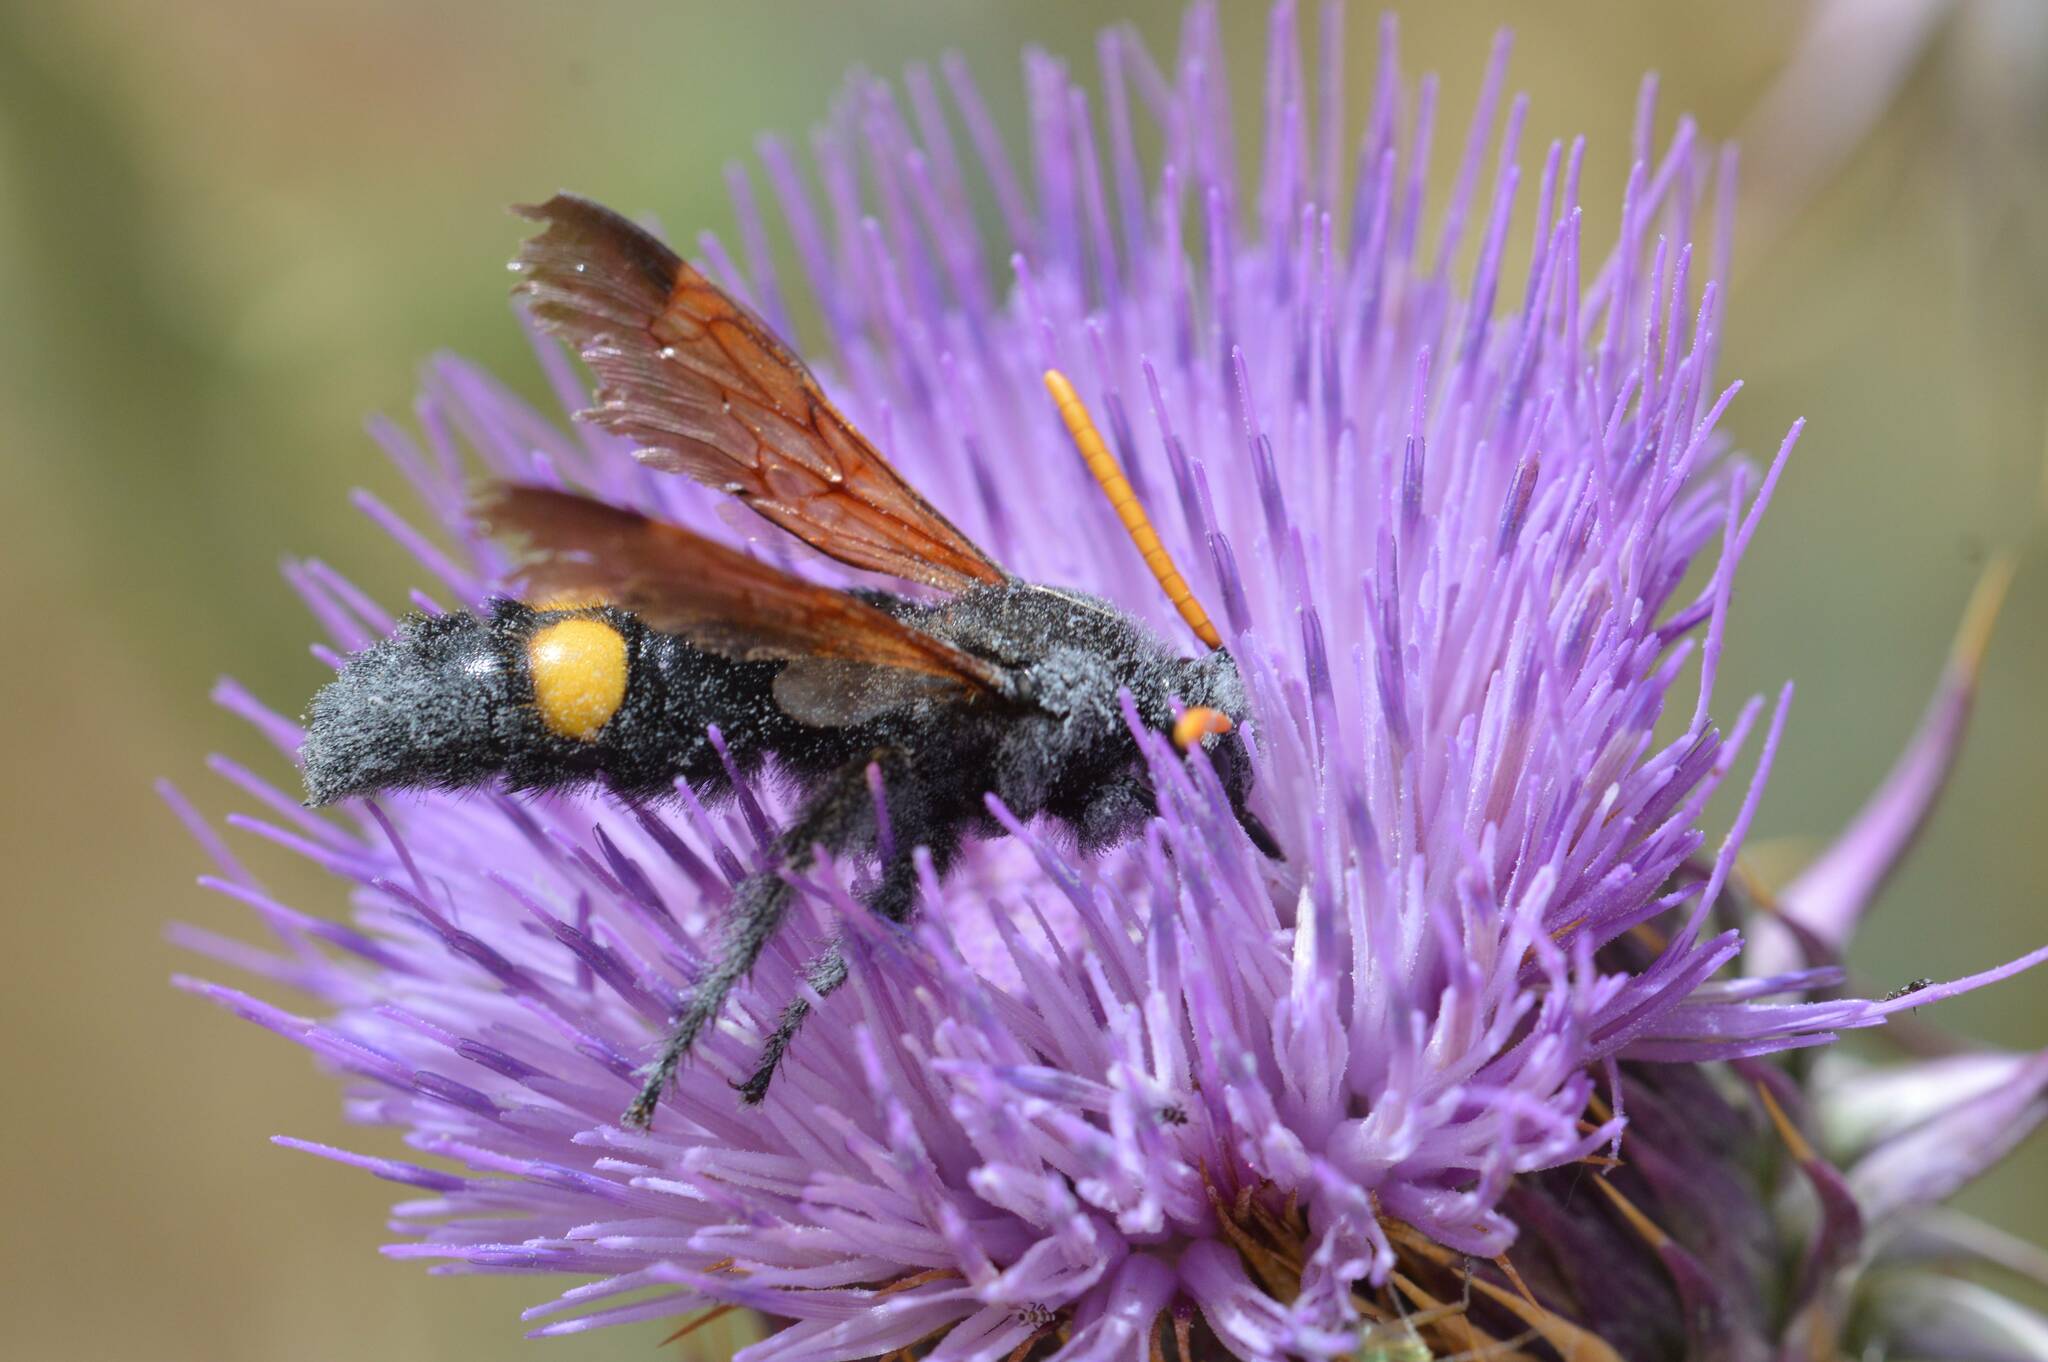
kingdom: Animalia
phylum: Arthropoda
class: Insecta
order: Hymenoptera
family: Scoliidae
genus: Megascolia
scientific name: Megascolia bidens
